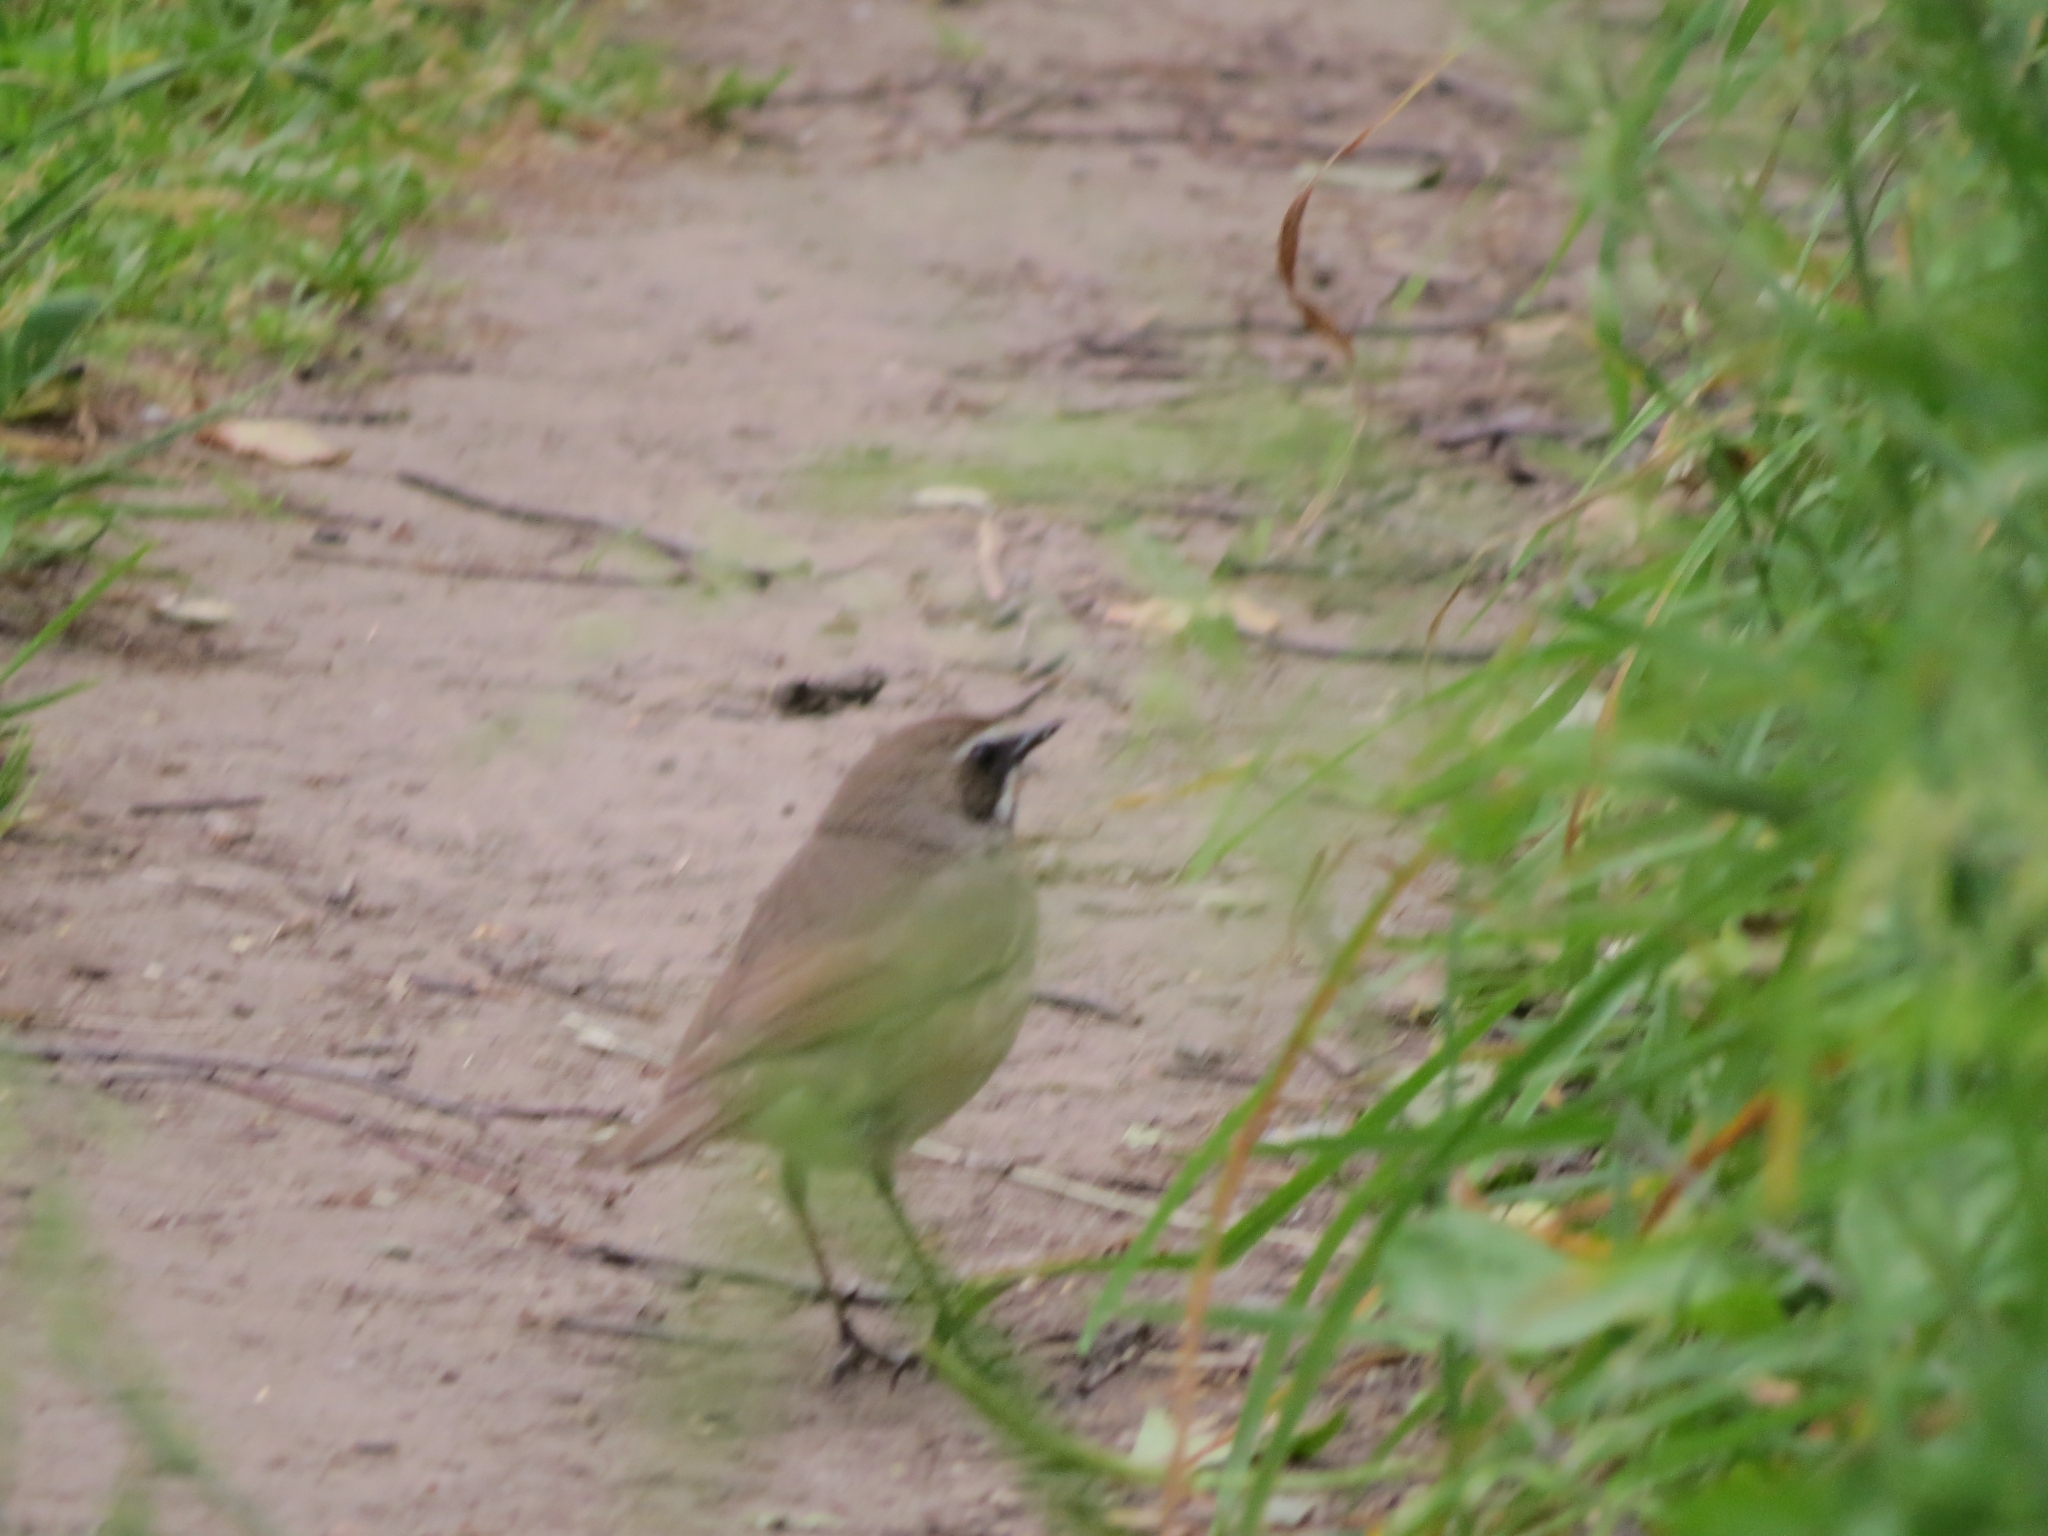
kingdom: Animalia
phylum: Chordata
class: Aves
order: Passeriformes
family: Muscicapidae
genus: Luscinia
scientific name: Luscinia calliope
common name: Siberian rubythroat
